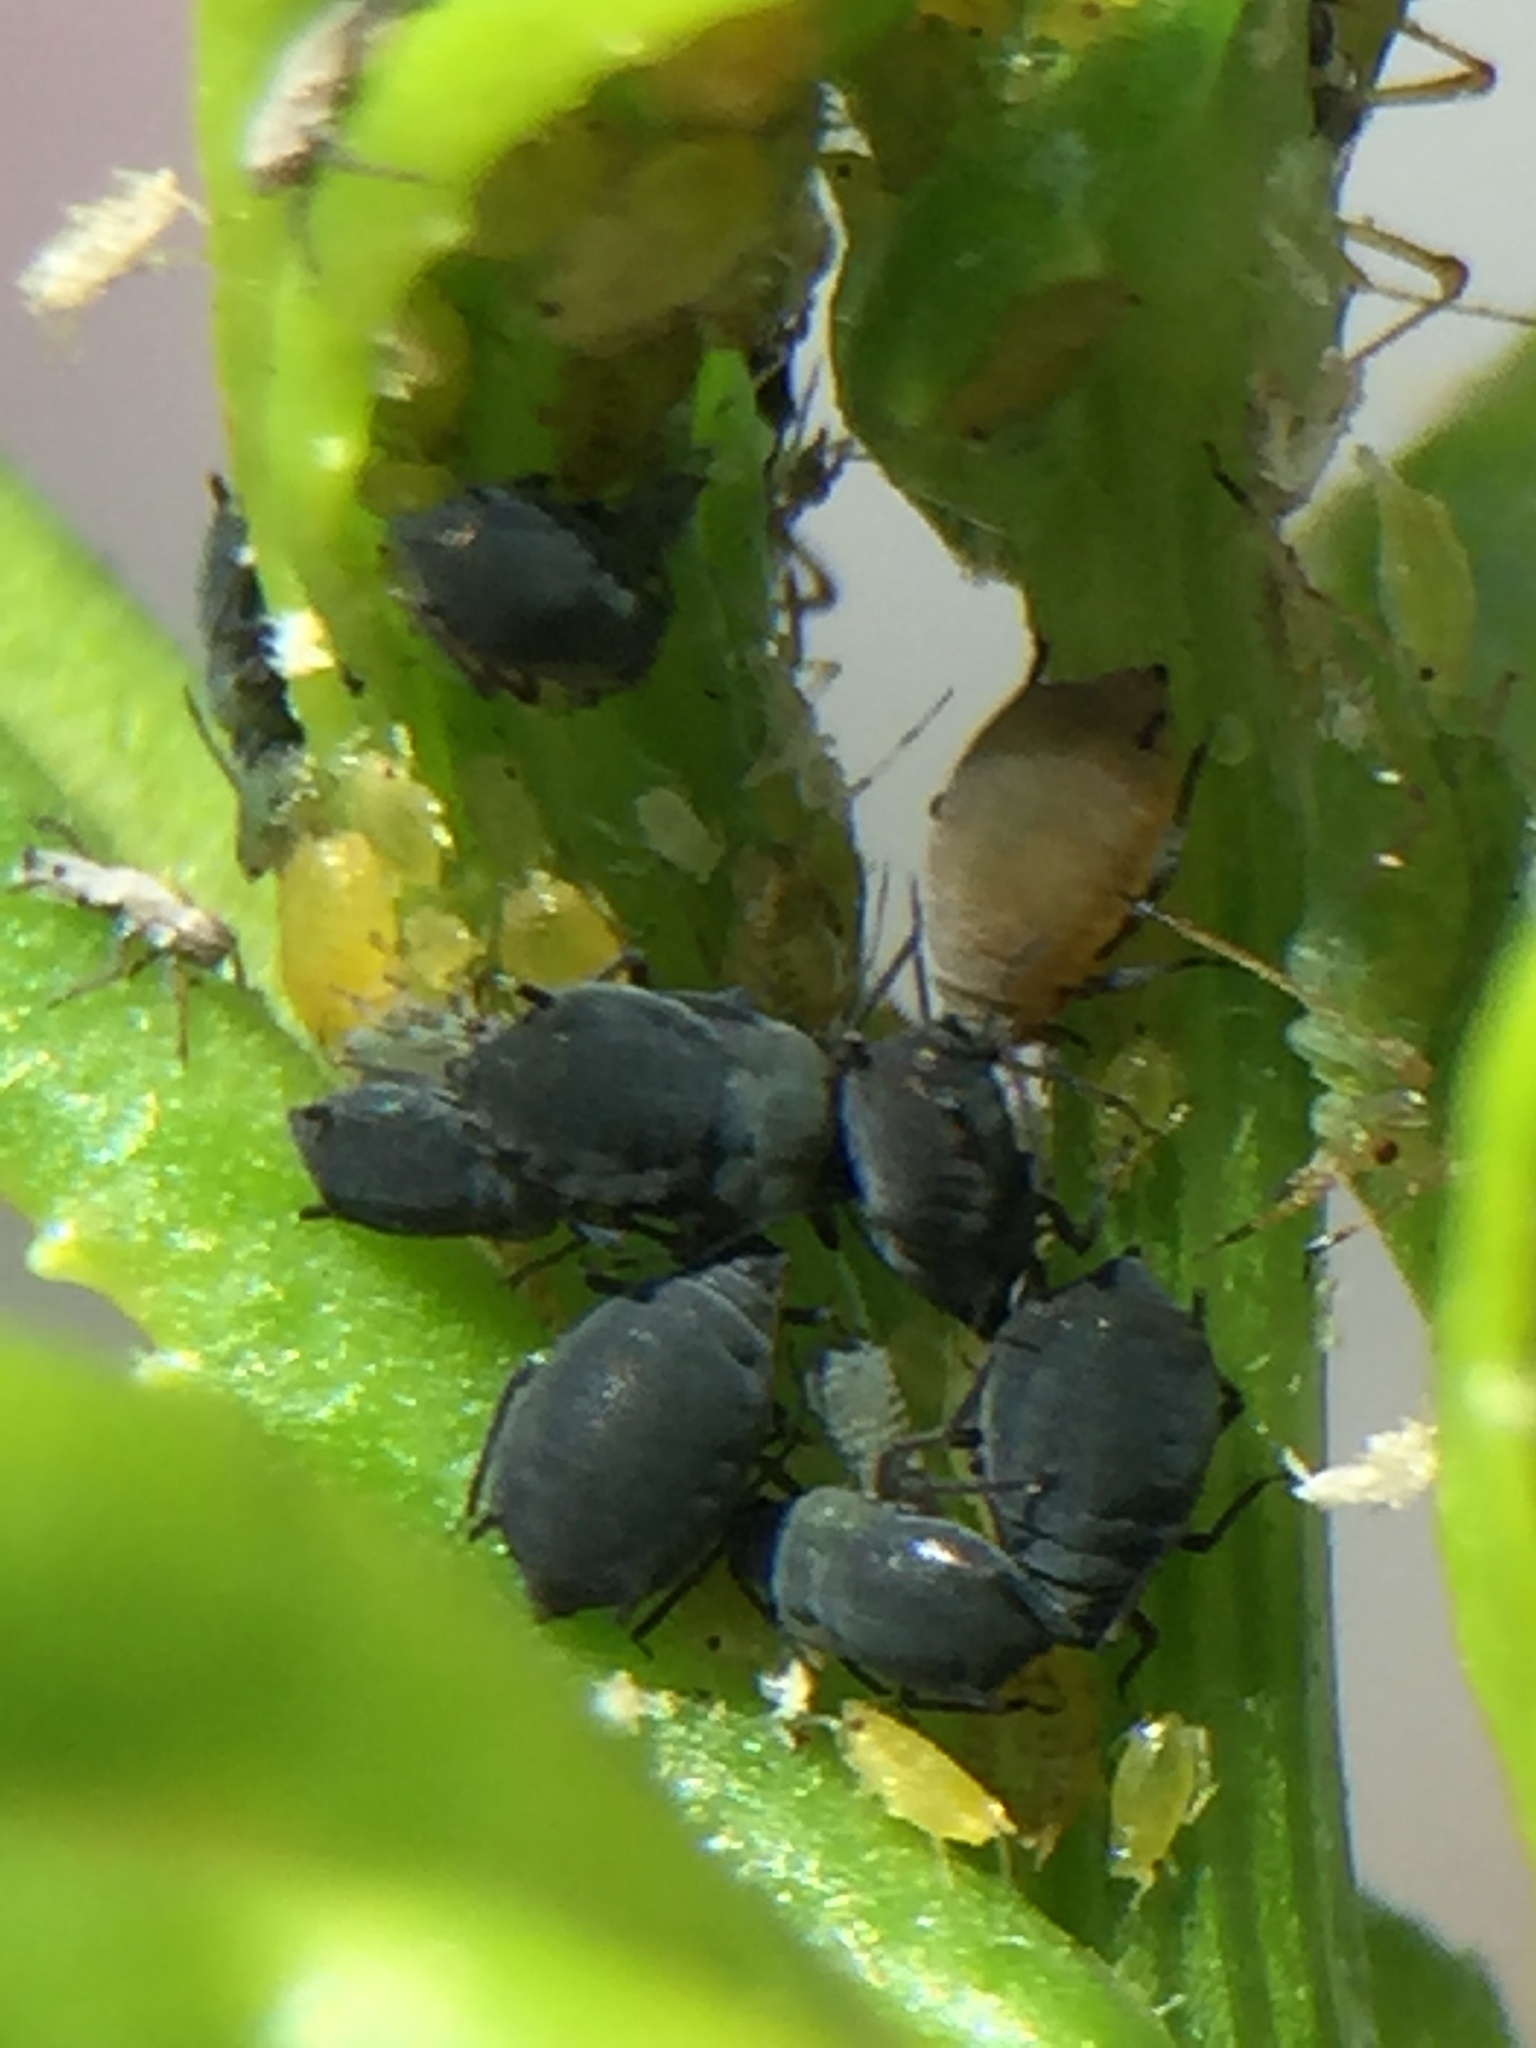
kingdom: Animalia
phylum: Arthropoda
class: Insecta
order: Hemiptera
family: Aphididae
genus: Aphis
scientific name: Aphis lugentis
